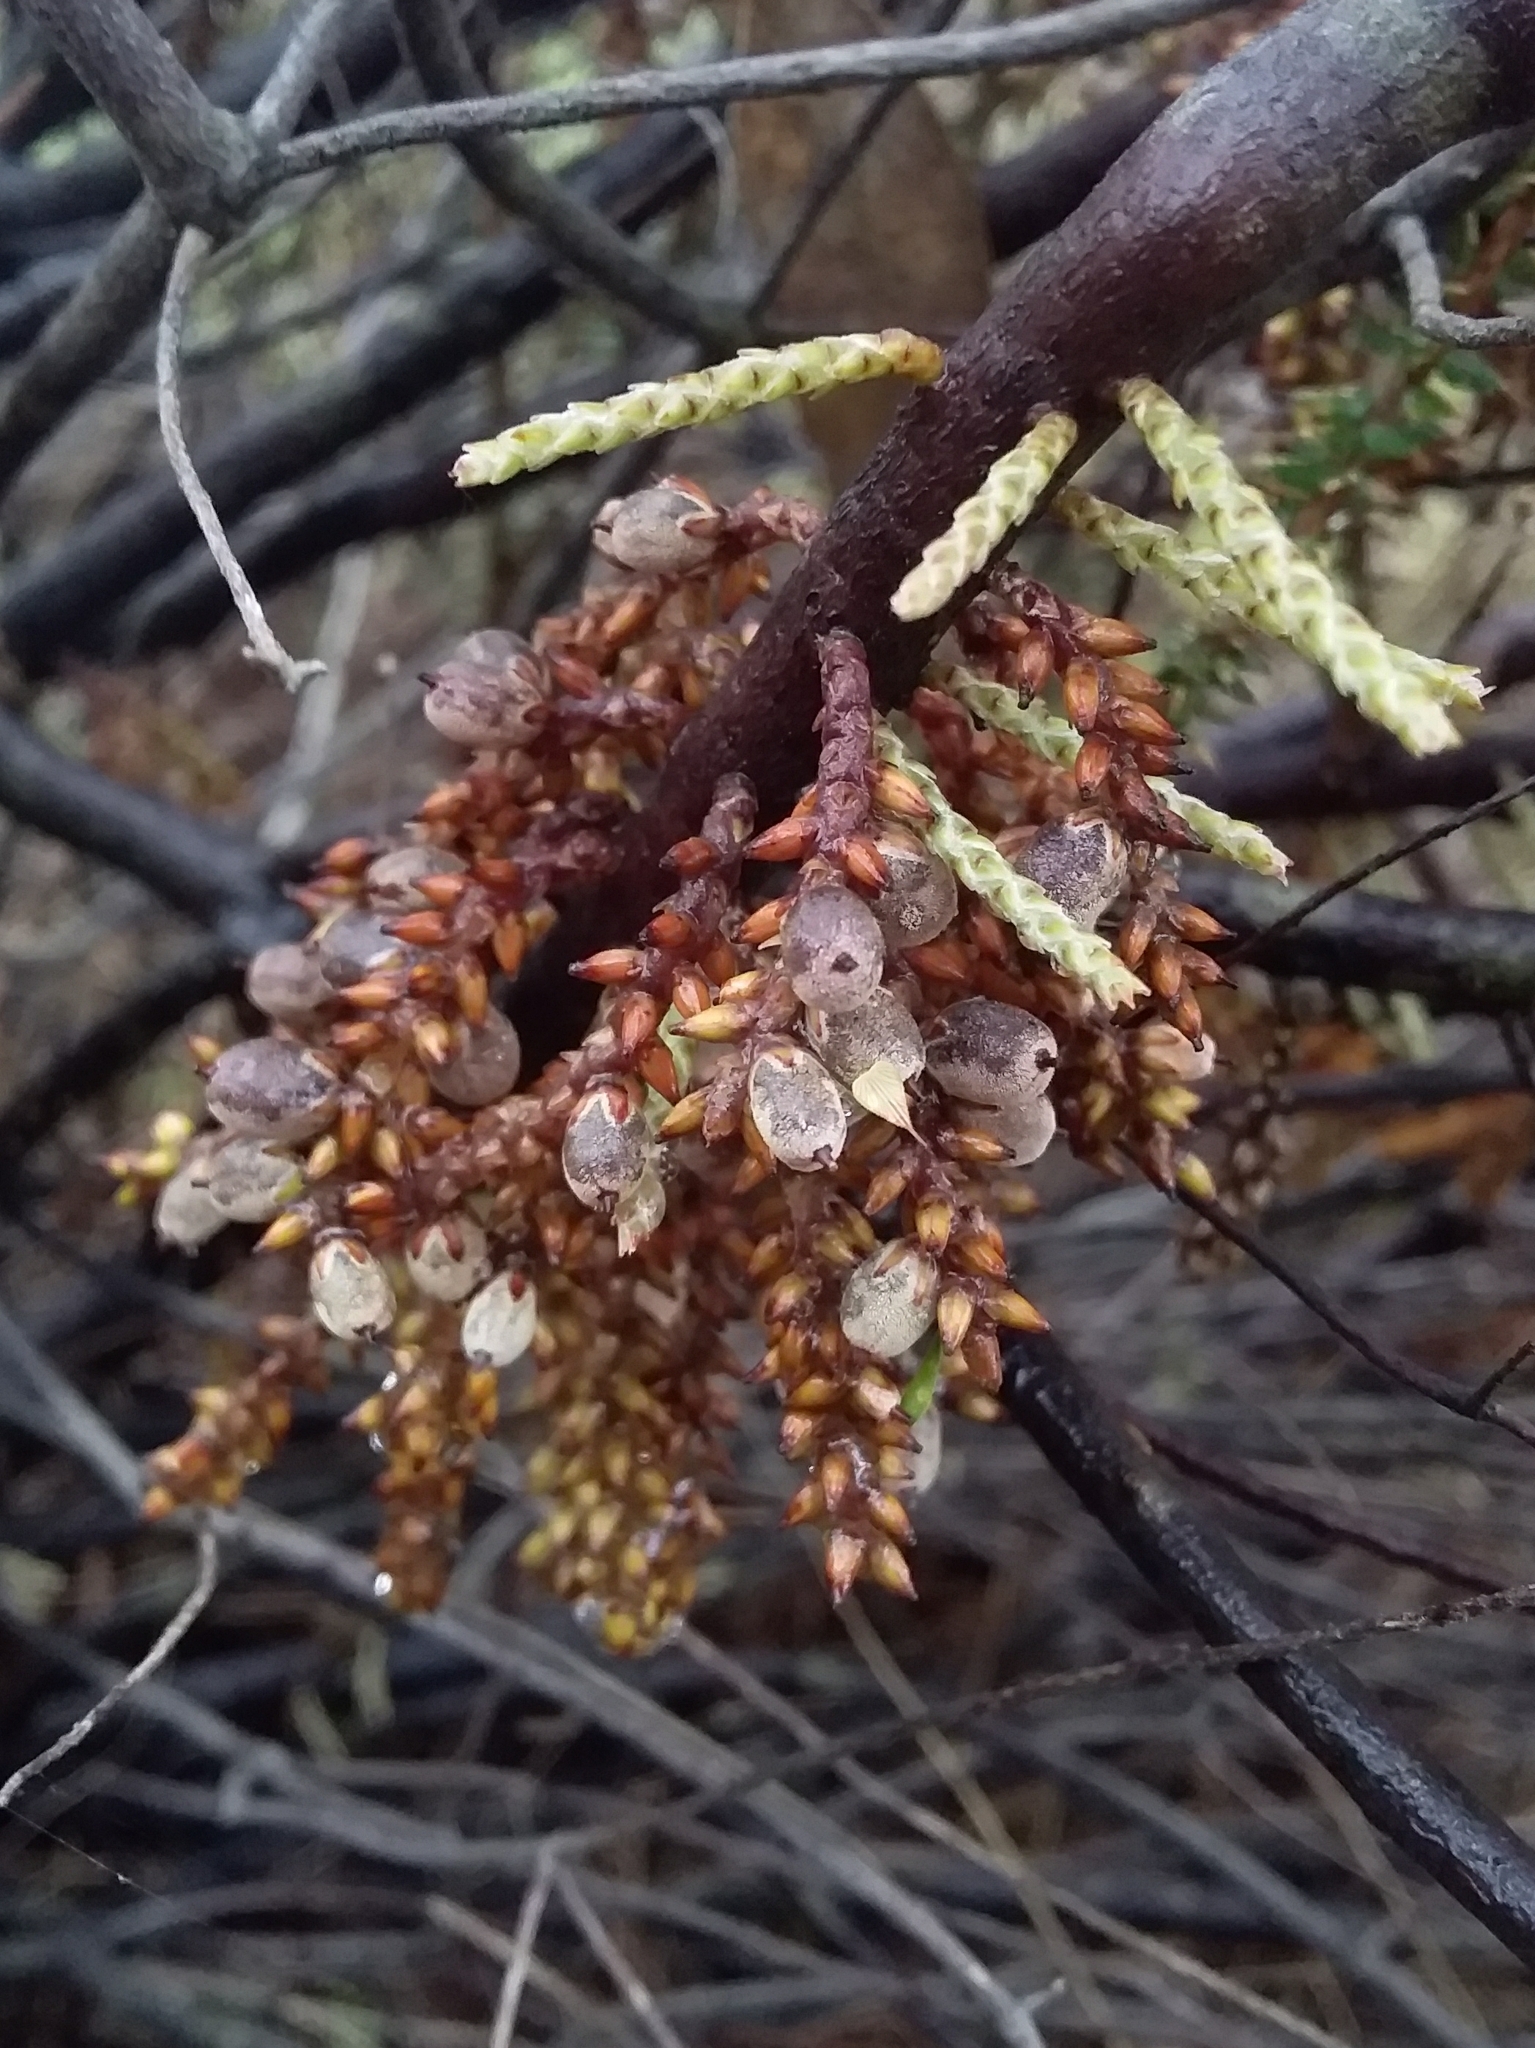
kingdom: Plantae
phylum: Tracheophyta
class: Magnoliopsida
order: Ericales
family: Ericaceae
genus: Acrotriche
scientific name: Acrotriche depressa
